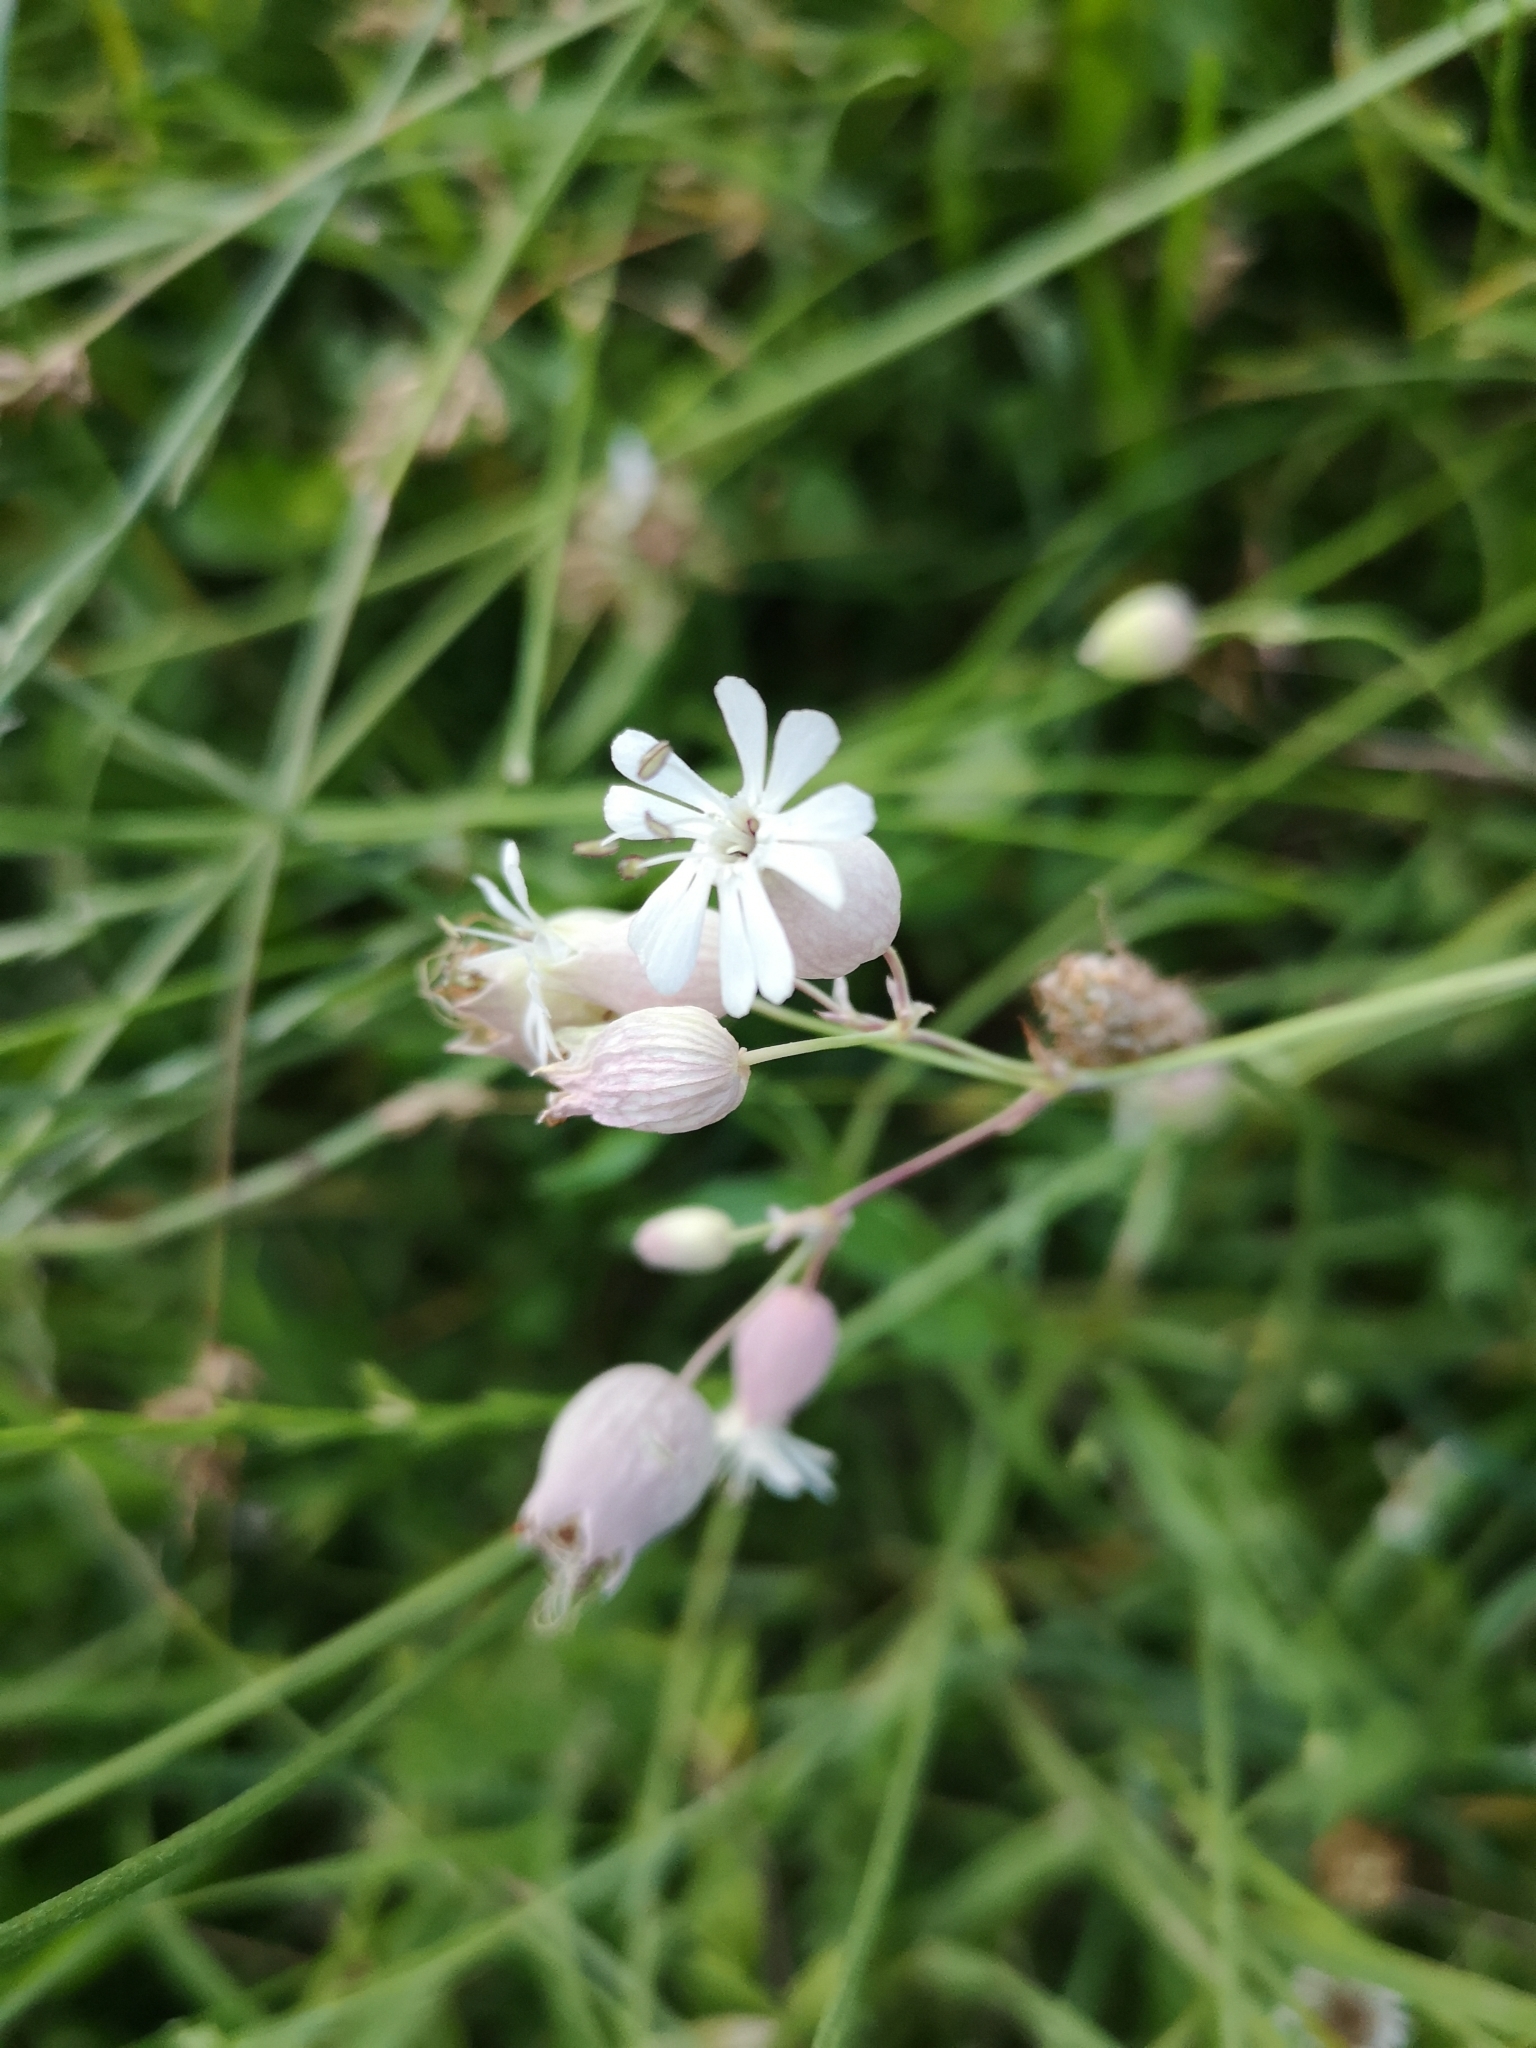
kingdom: Plantae
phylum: Tracheophyta
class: Magnoliopsida
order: Caryophyllales
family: Caryophyllaceae
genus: Silene
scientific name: Silene vulgaris
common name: Bladder campion
